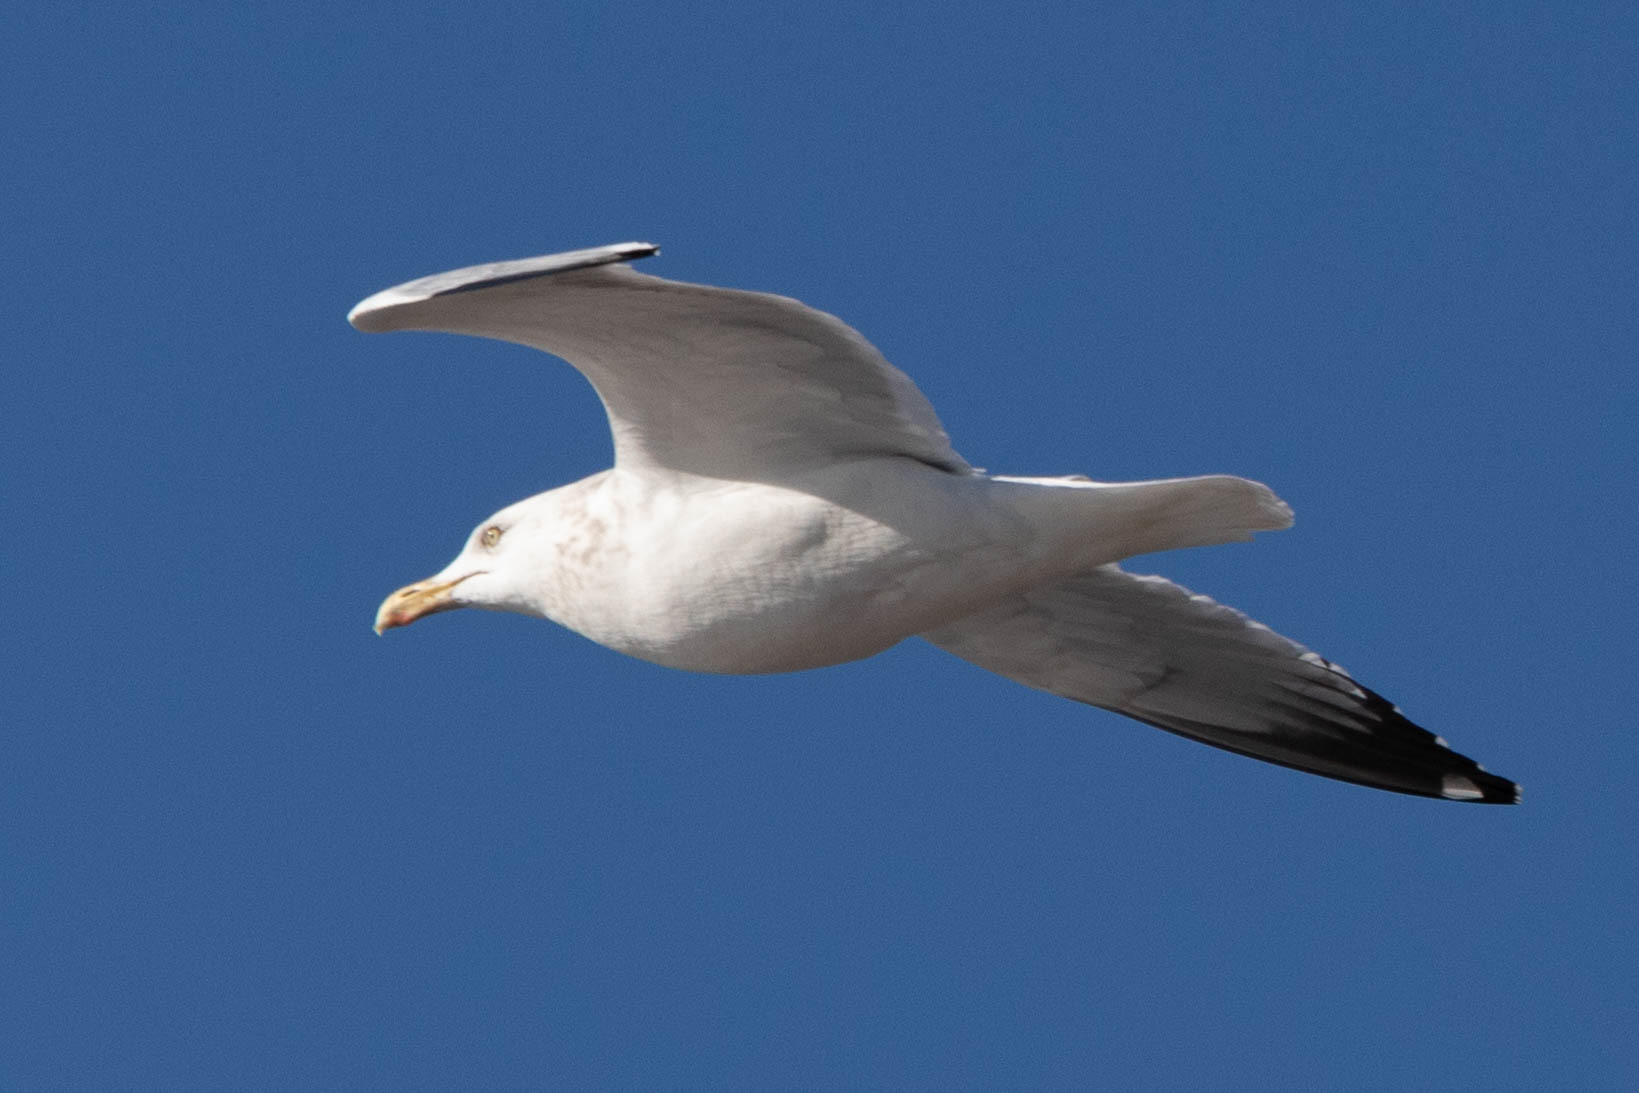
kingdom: Animalia
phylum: Chordata
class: Aves
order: Charadriiformes
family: Laridae
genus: Larus
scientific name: Larus argentatus
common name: Herring gull
